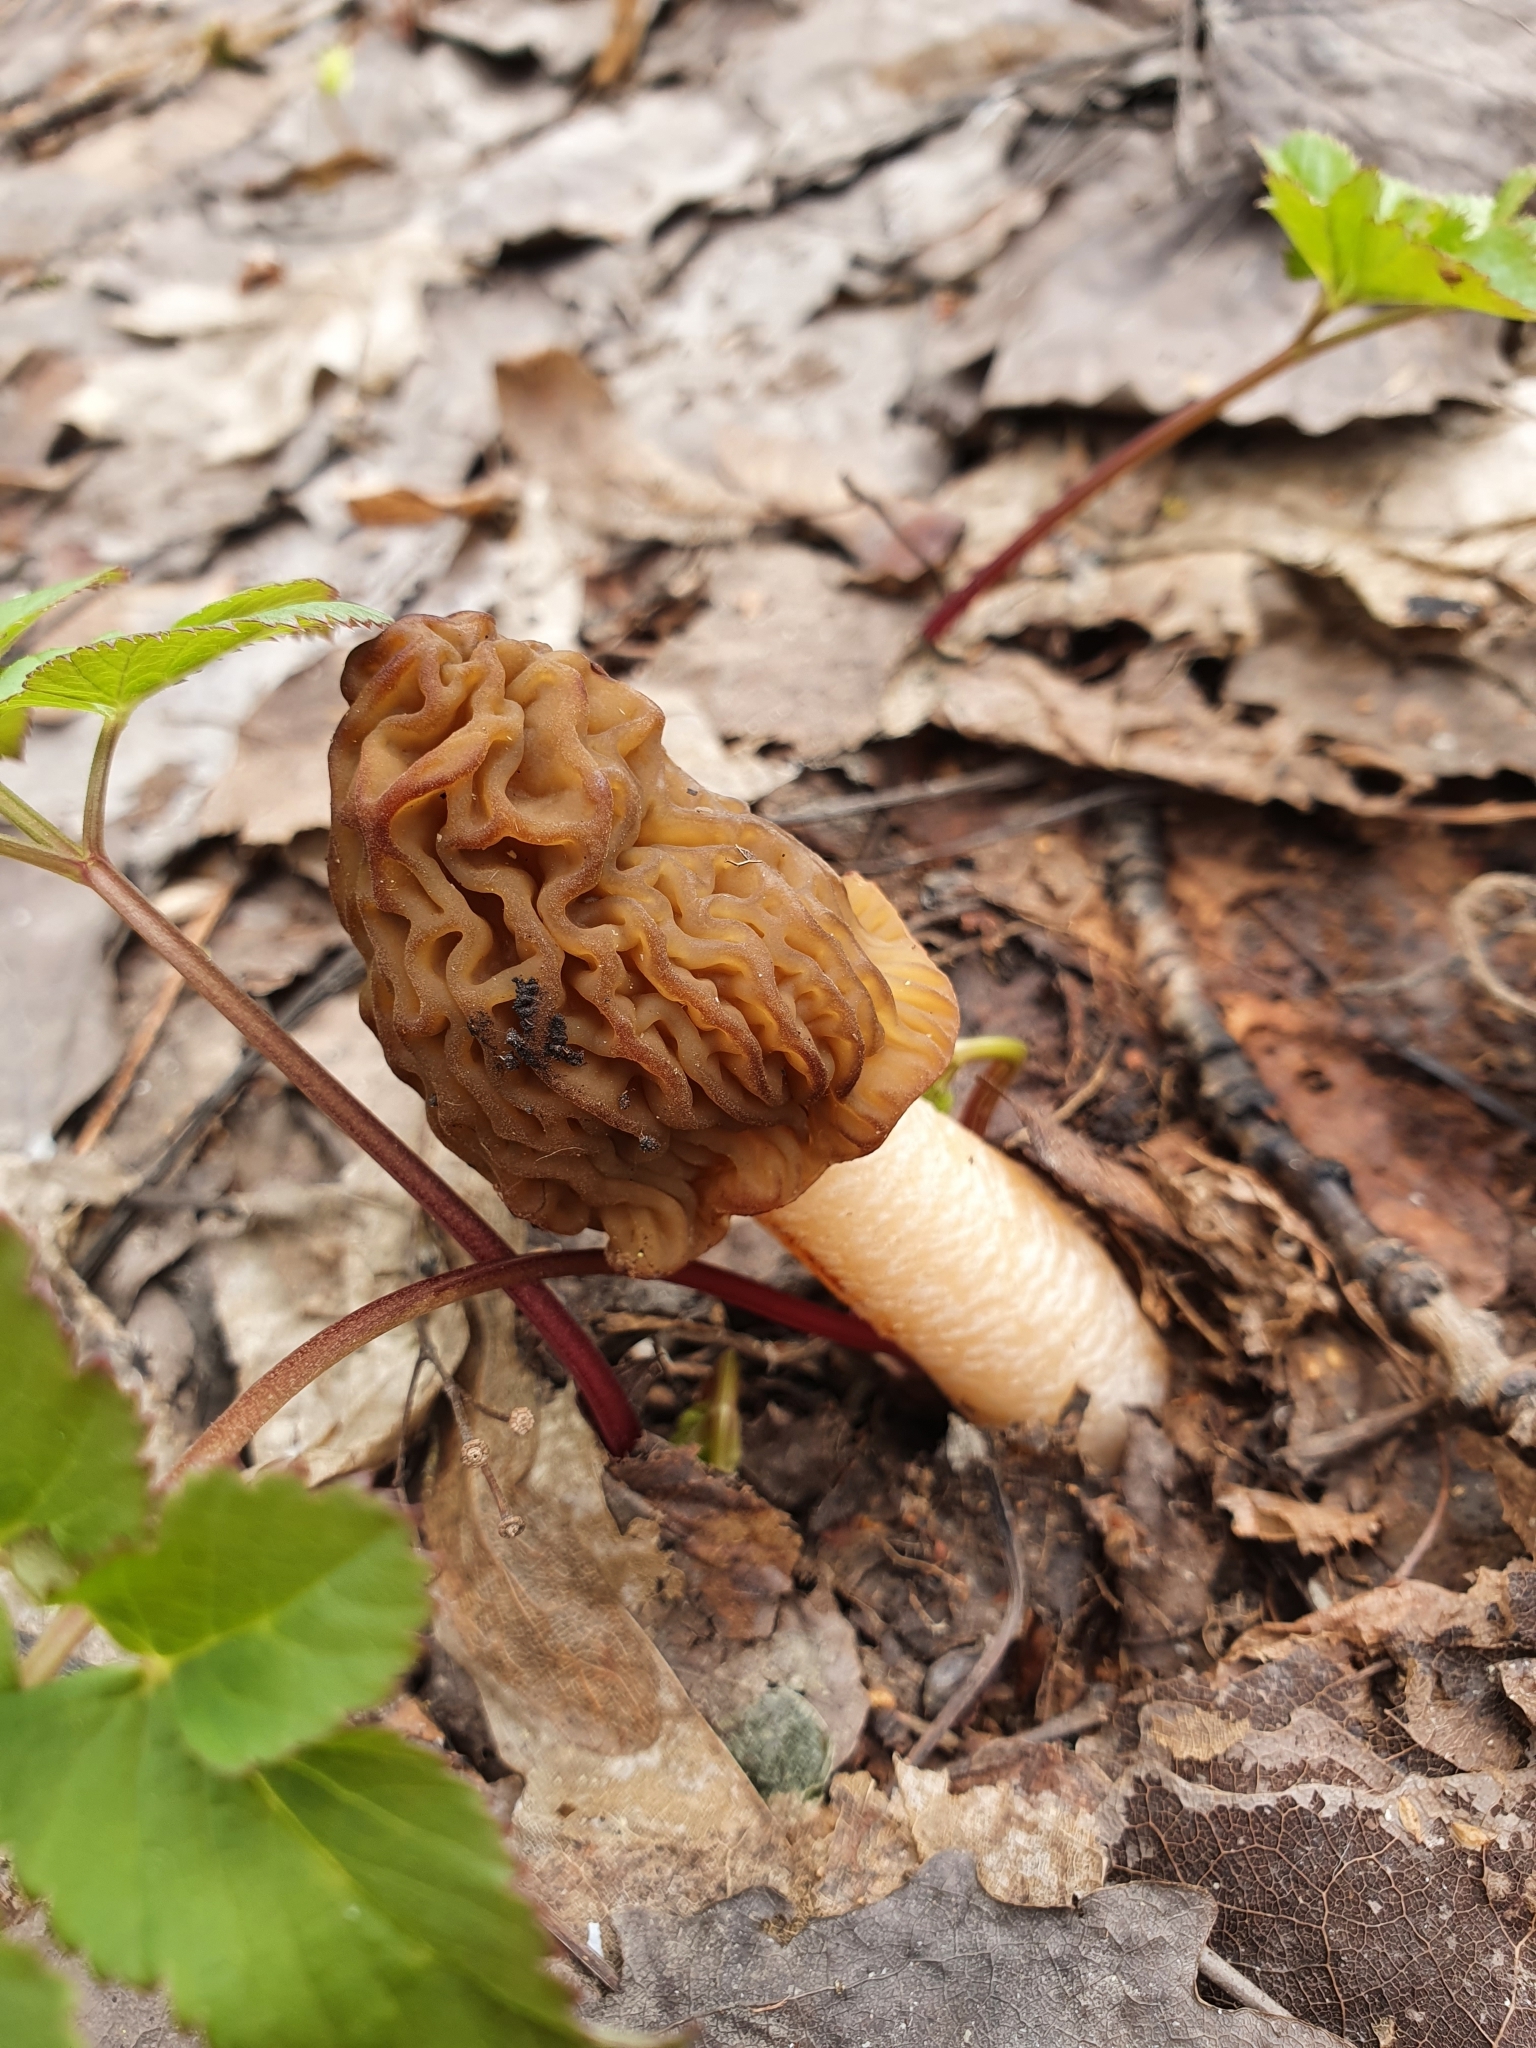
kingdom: Fungi
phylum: Ascomycota
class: Pezizomycetes
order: Pezizales
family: Morchellaceae
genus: Verpa
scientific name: Verpa bohemica
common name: Wrinkled thimble morel
